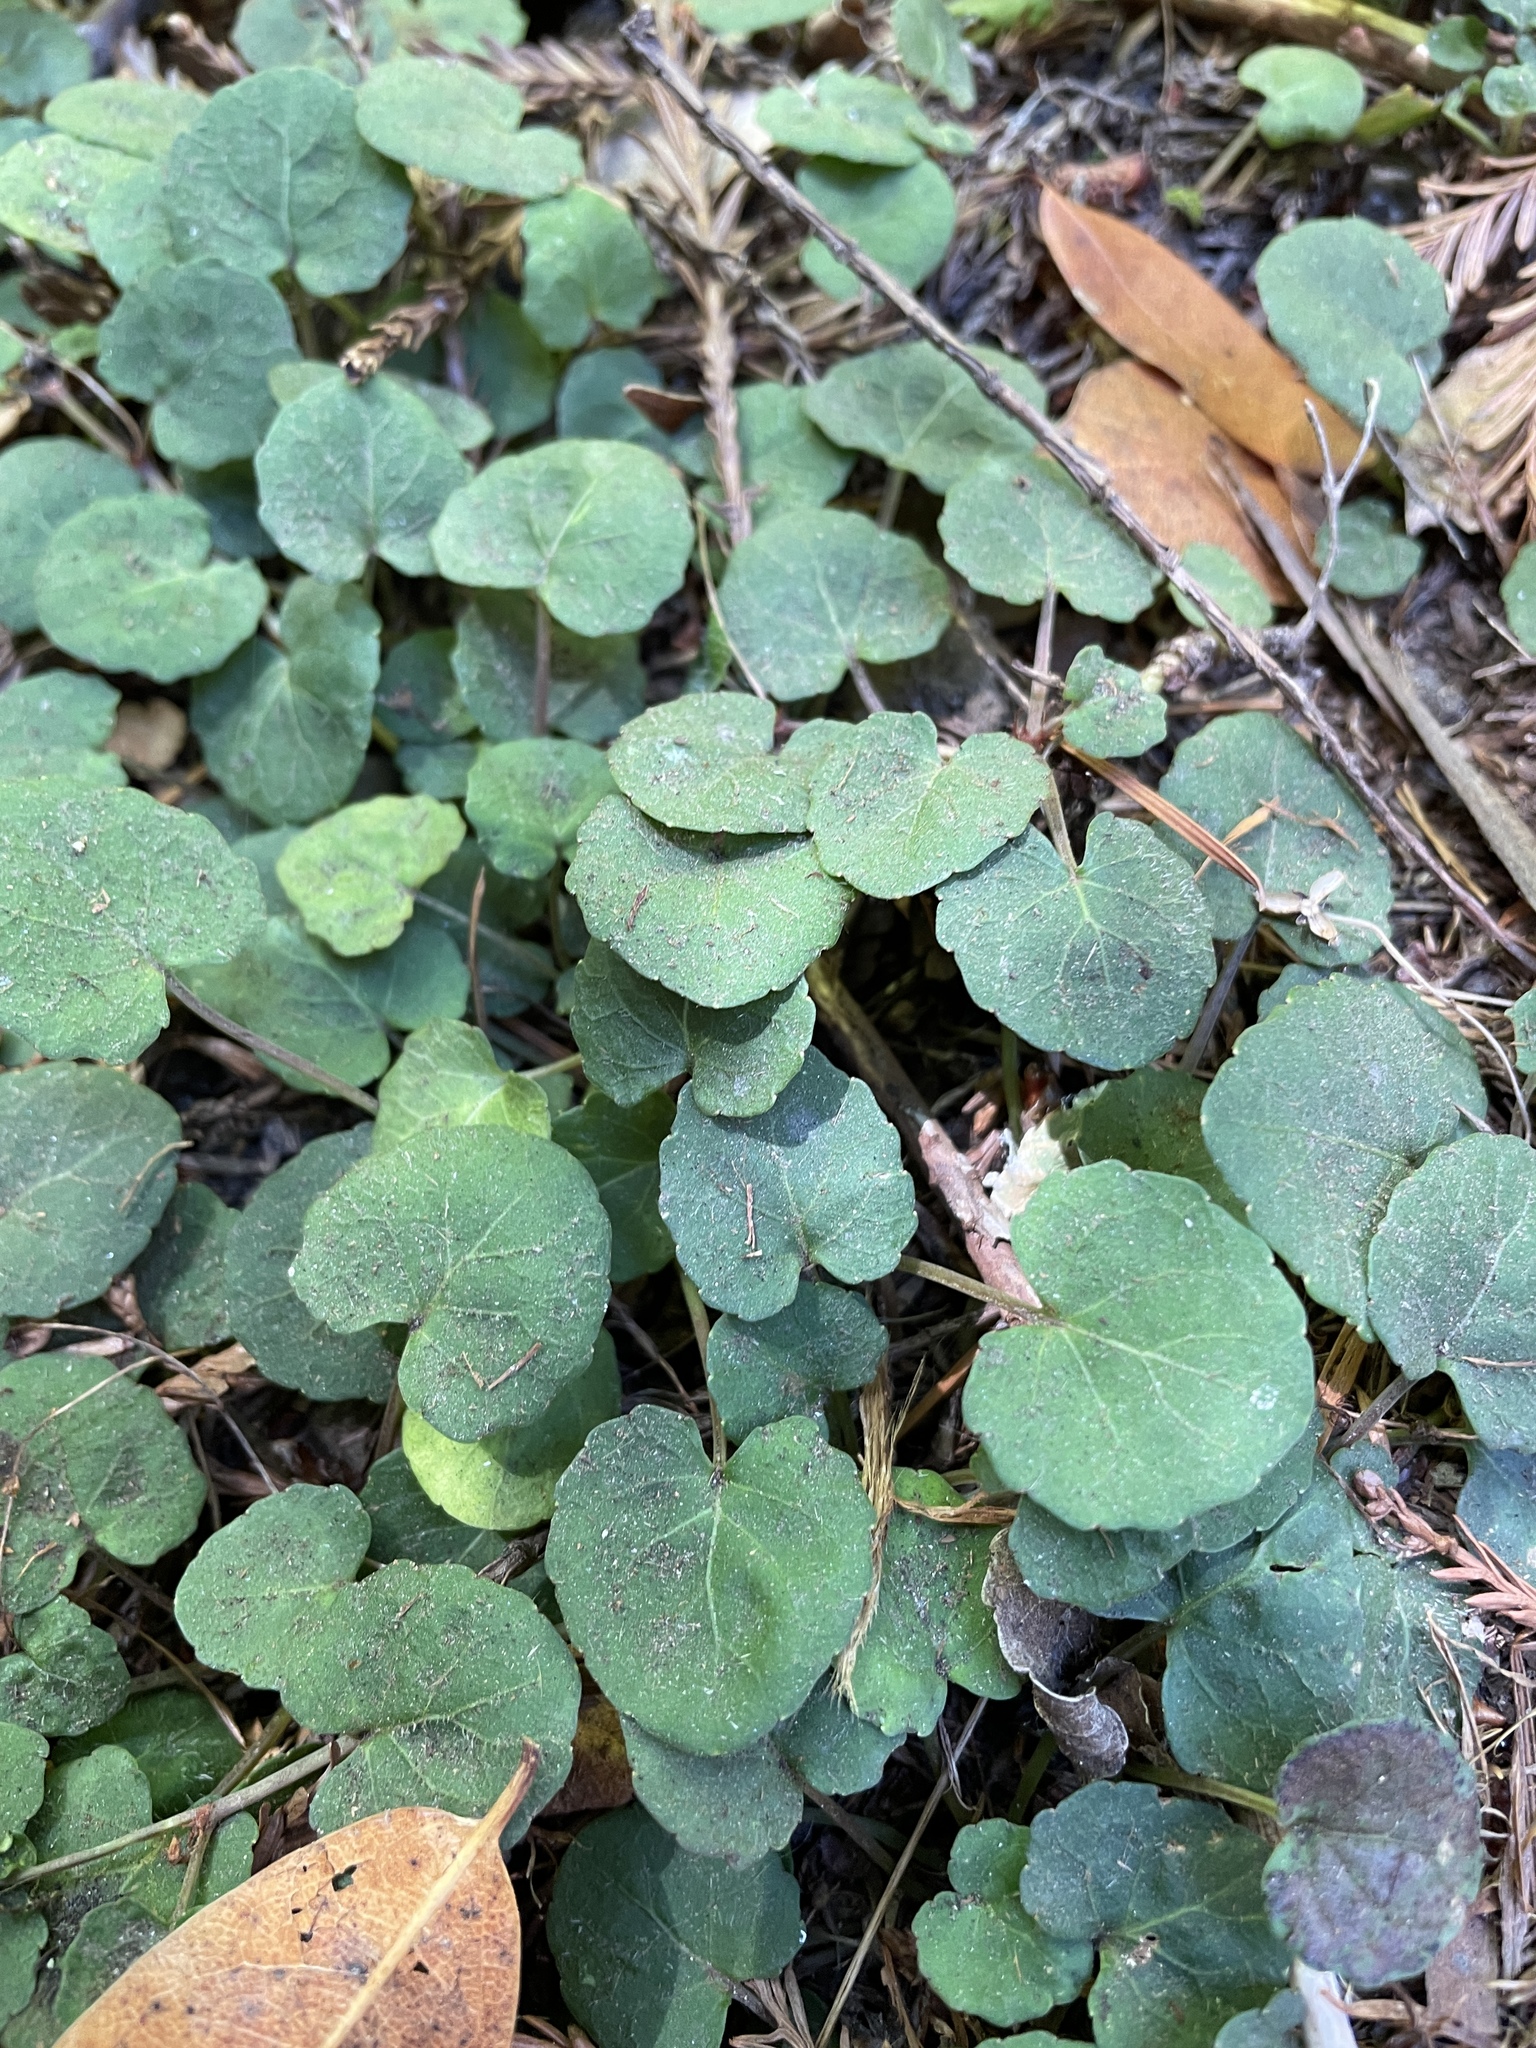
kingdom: Plantae
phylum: Tracheophyta
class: Magnoliopsida
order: Malpighiales
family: Violaceae
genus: Viola
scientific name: Viola sempervirens
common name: Evergreen violet
